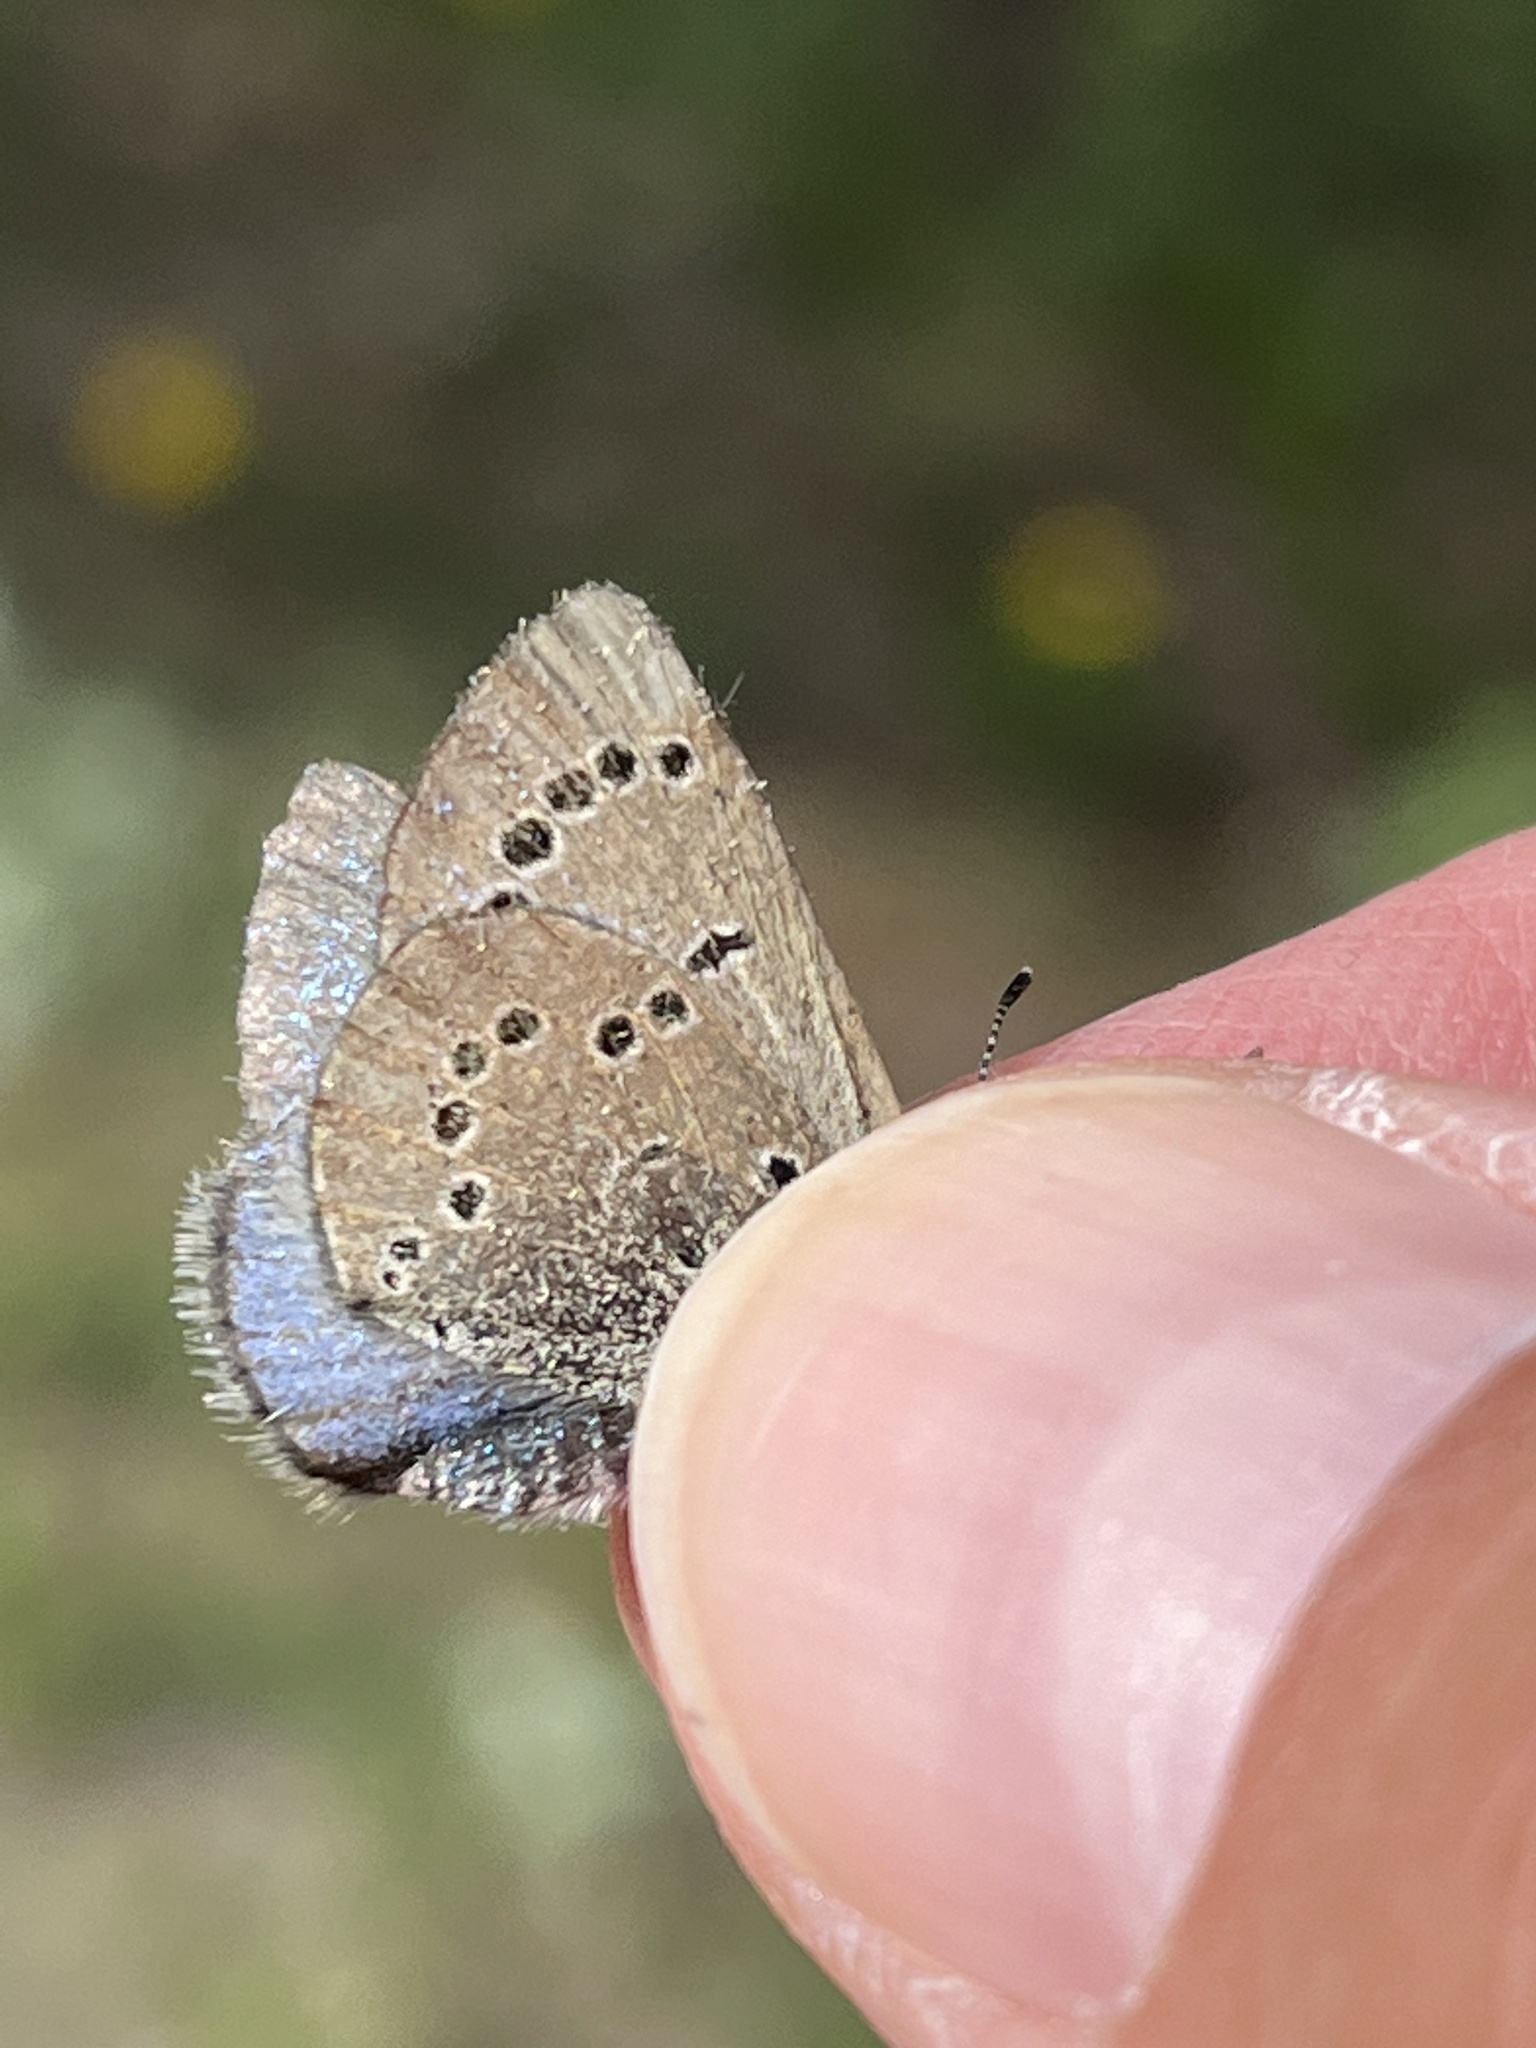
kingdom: Animalia
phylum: Arthropoda
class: Insecta
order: Lepidoptera
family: Lycaenidae
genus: Glaucopsyche
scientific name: Glaucopsyche lygdamus
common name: Silvery blue
